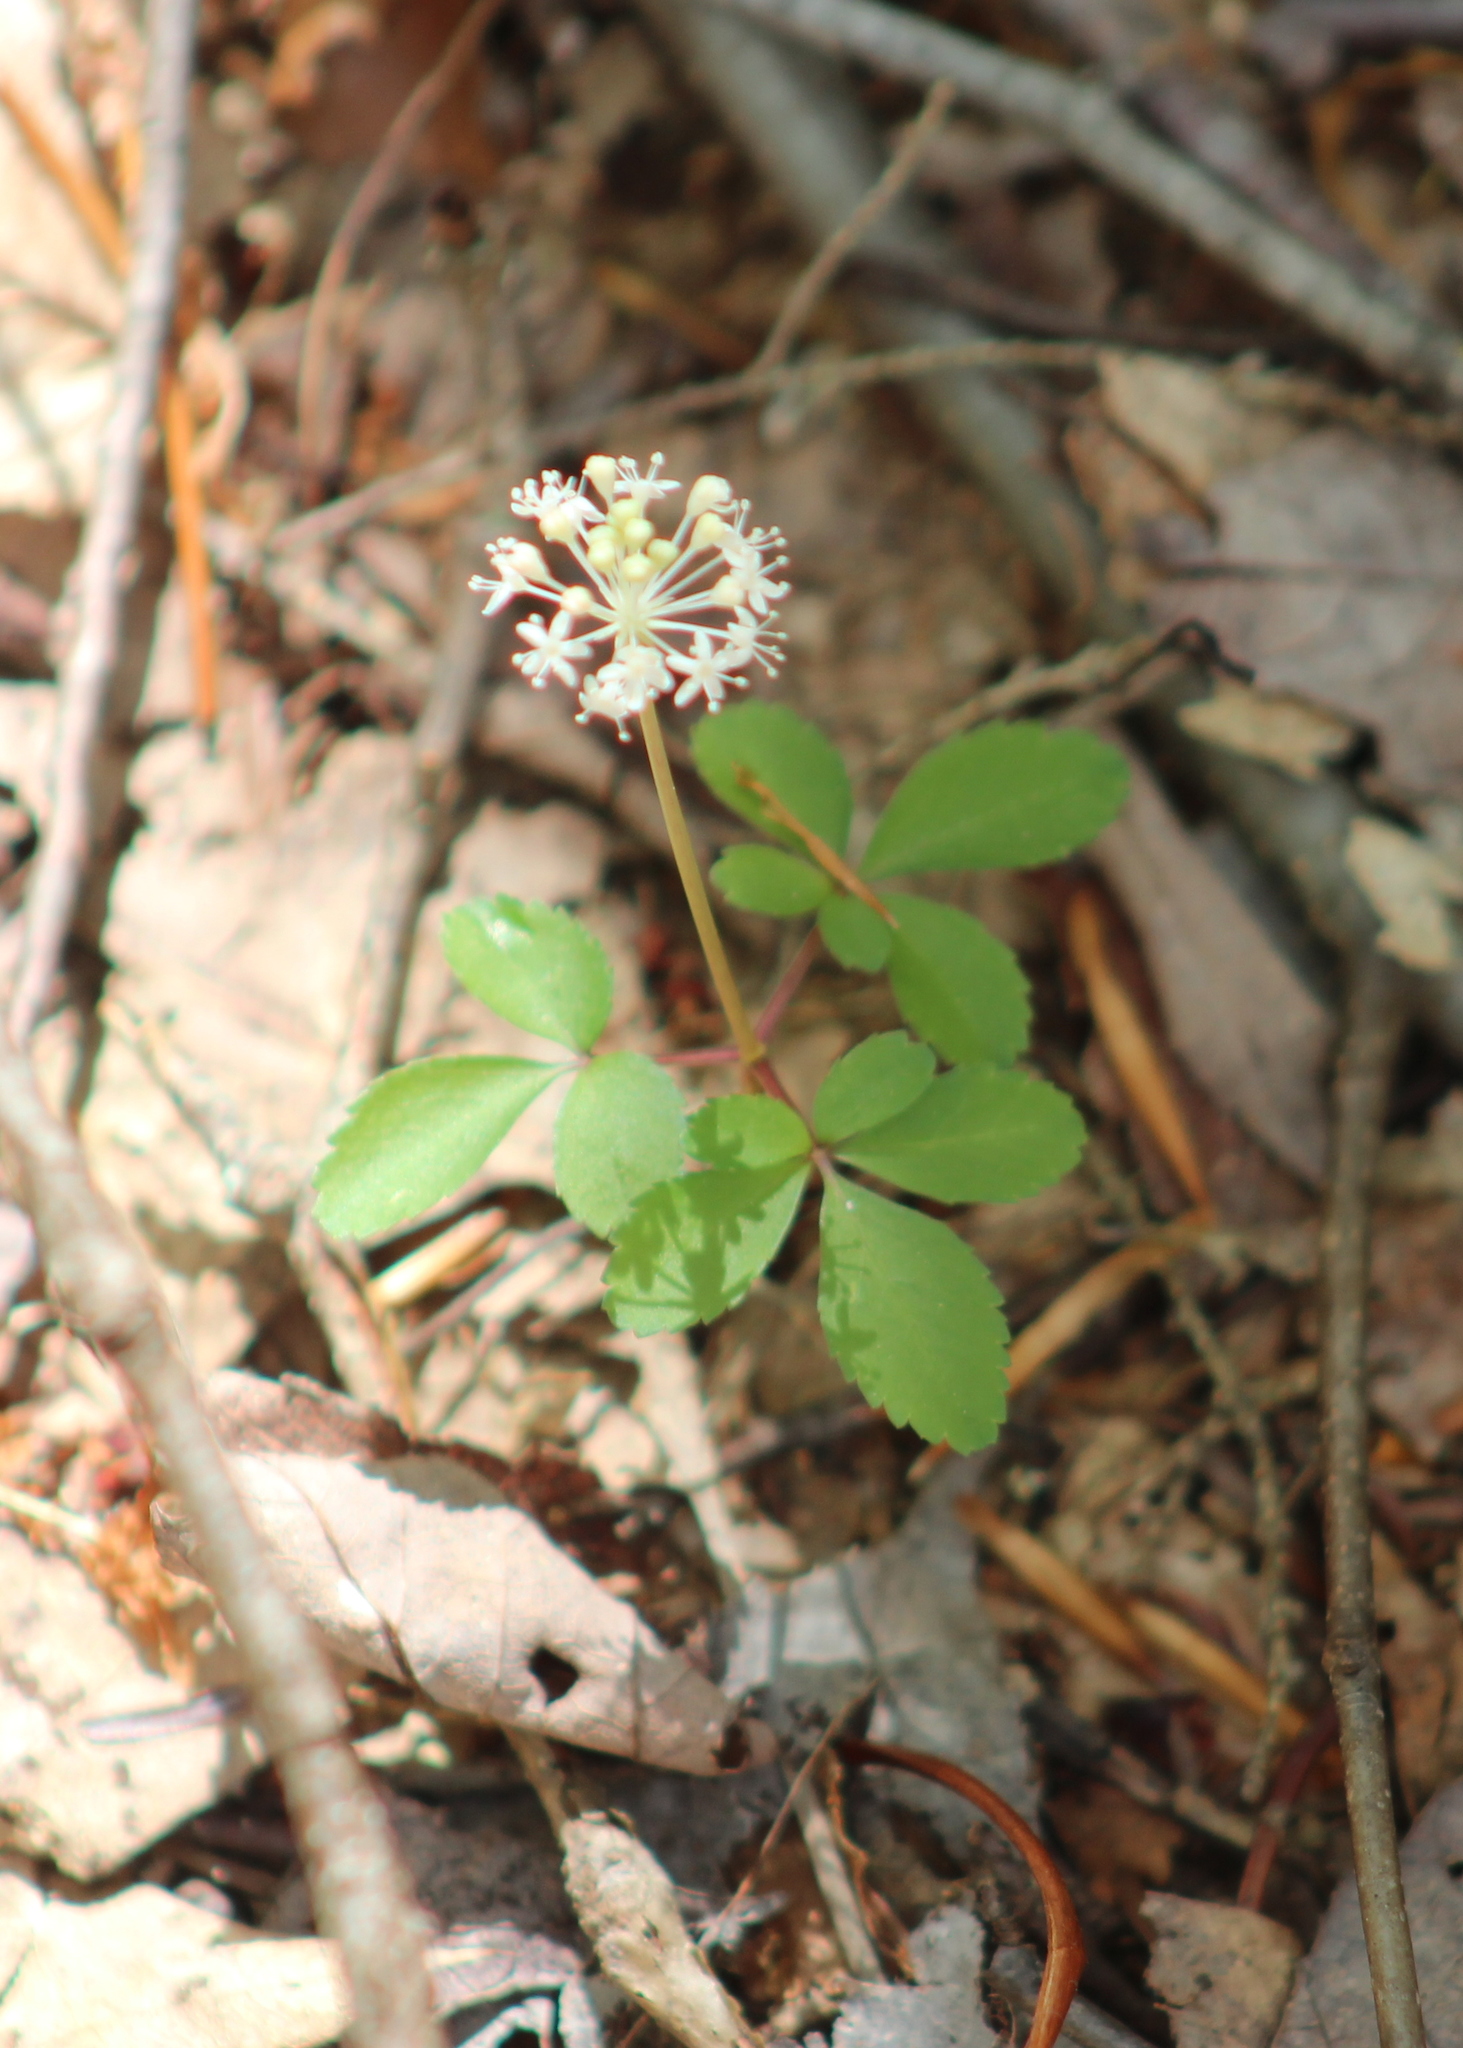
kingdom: Plantae
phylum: Tracheophyta
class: Magnoliopsida
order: Apiales
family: Araliaceae
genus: Panax
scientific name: Panax trifolius
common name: Dwarf ginseng
